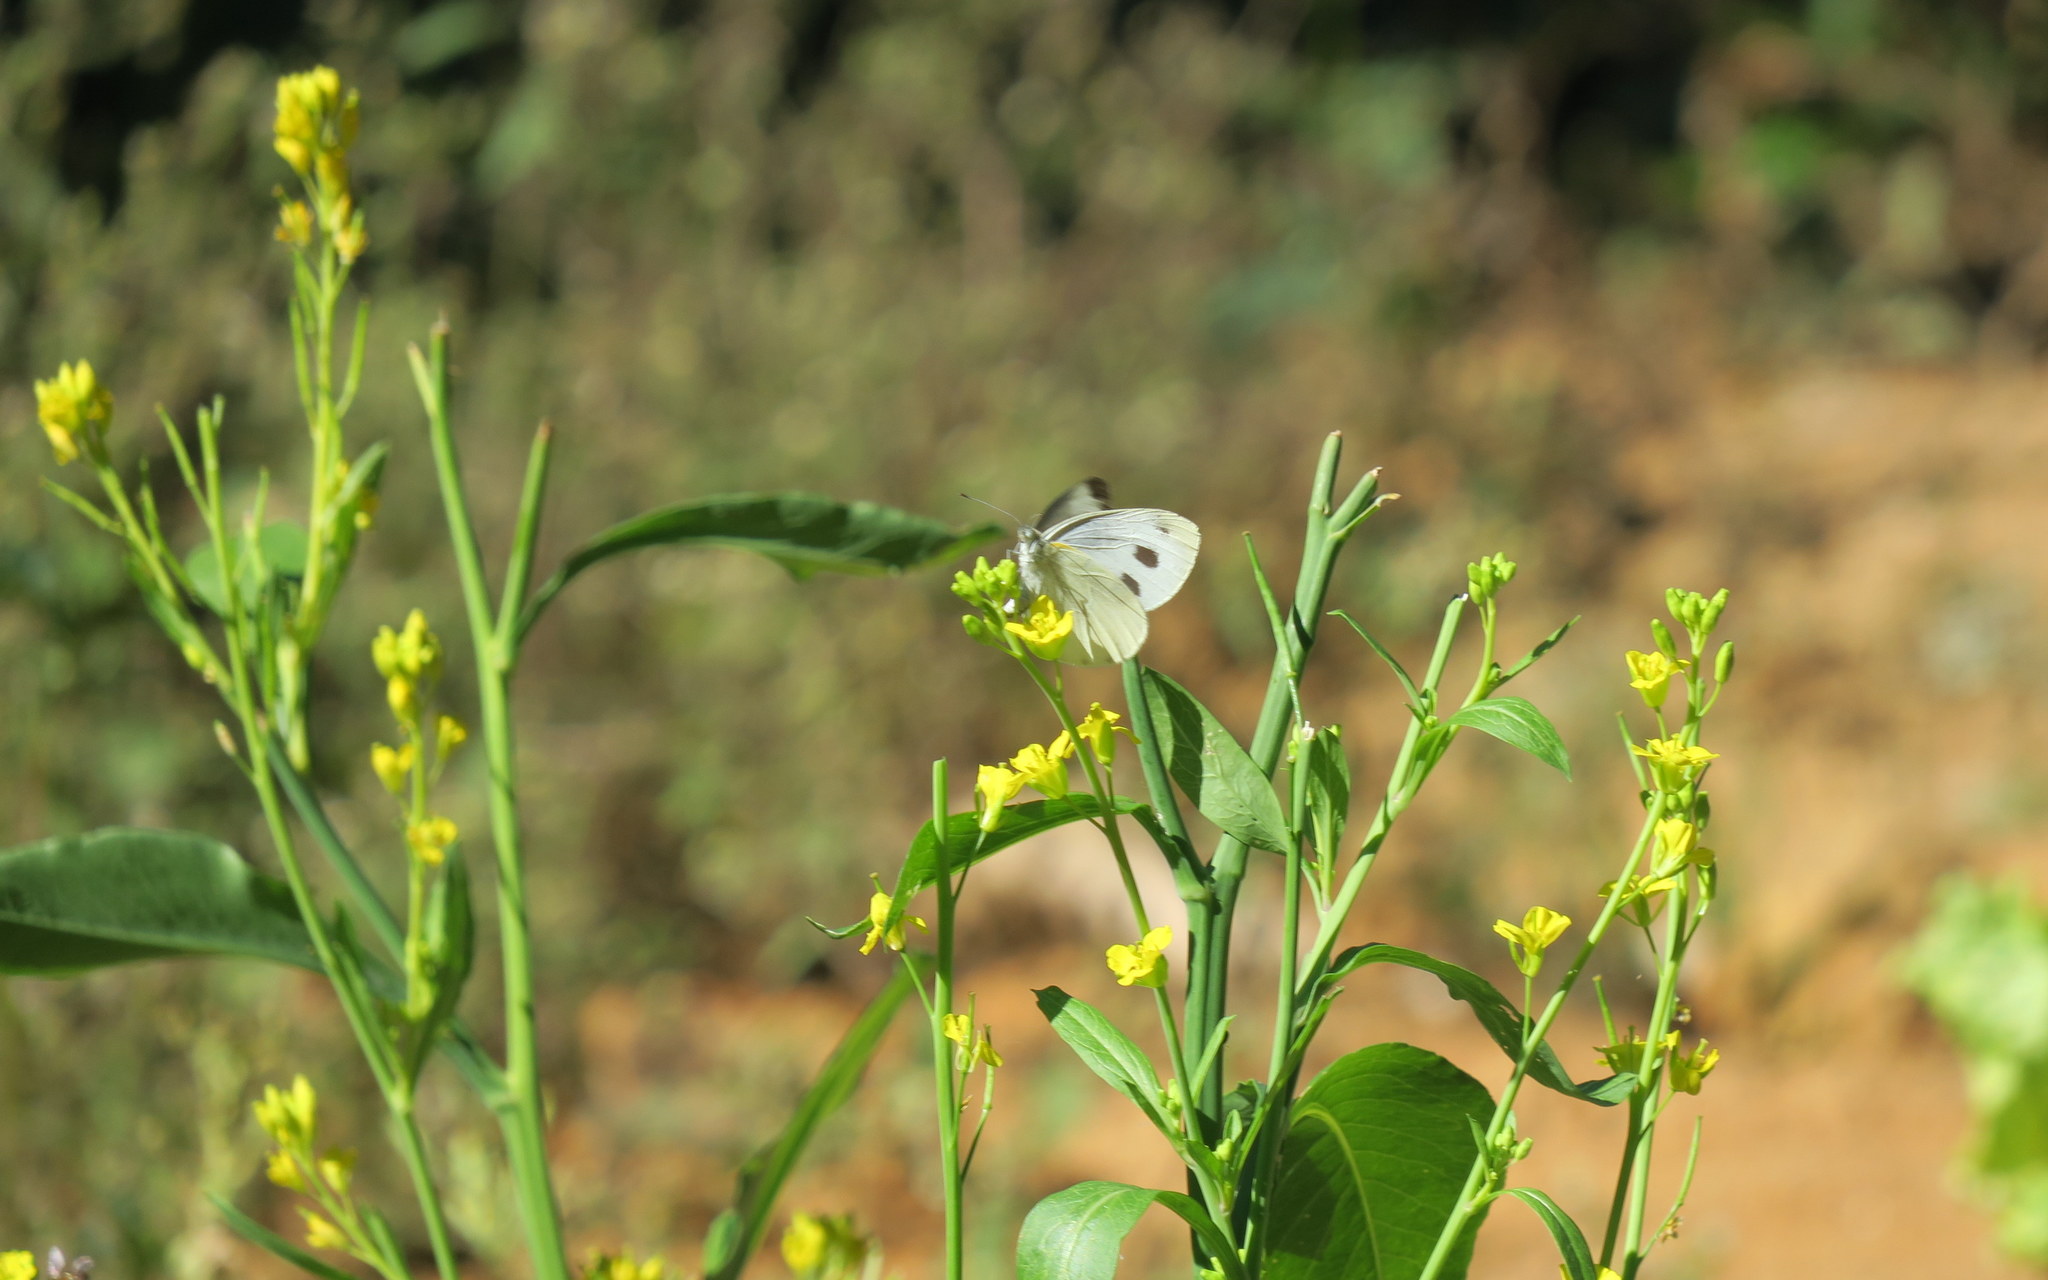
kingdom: Animalia
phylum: Arthropoda
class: Insecta
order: Lepidoptera
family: Pieridae
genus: Pieris
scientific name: Pieris canidia
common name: Indian cabbage white
